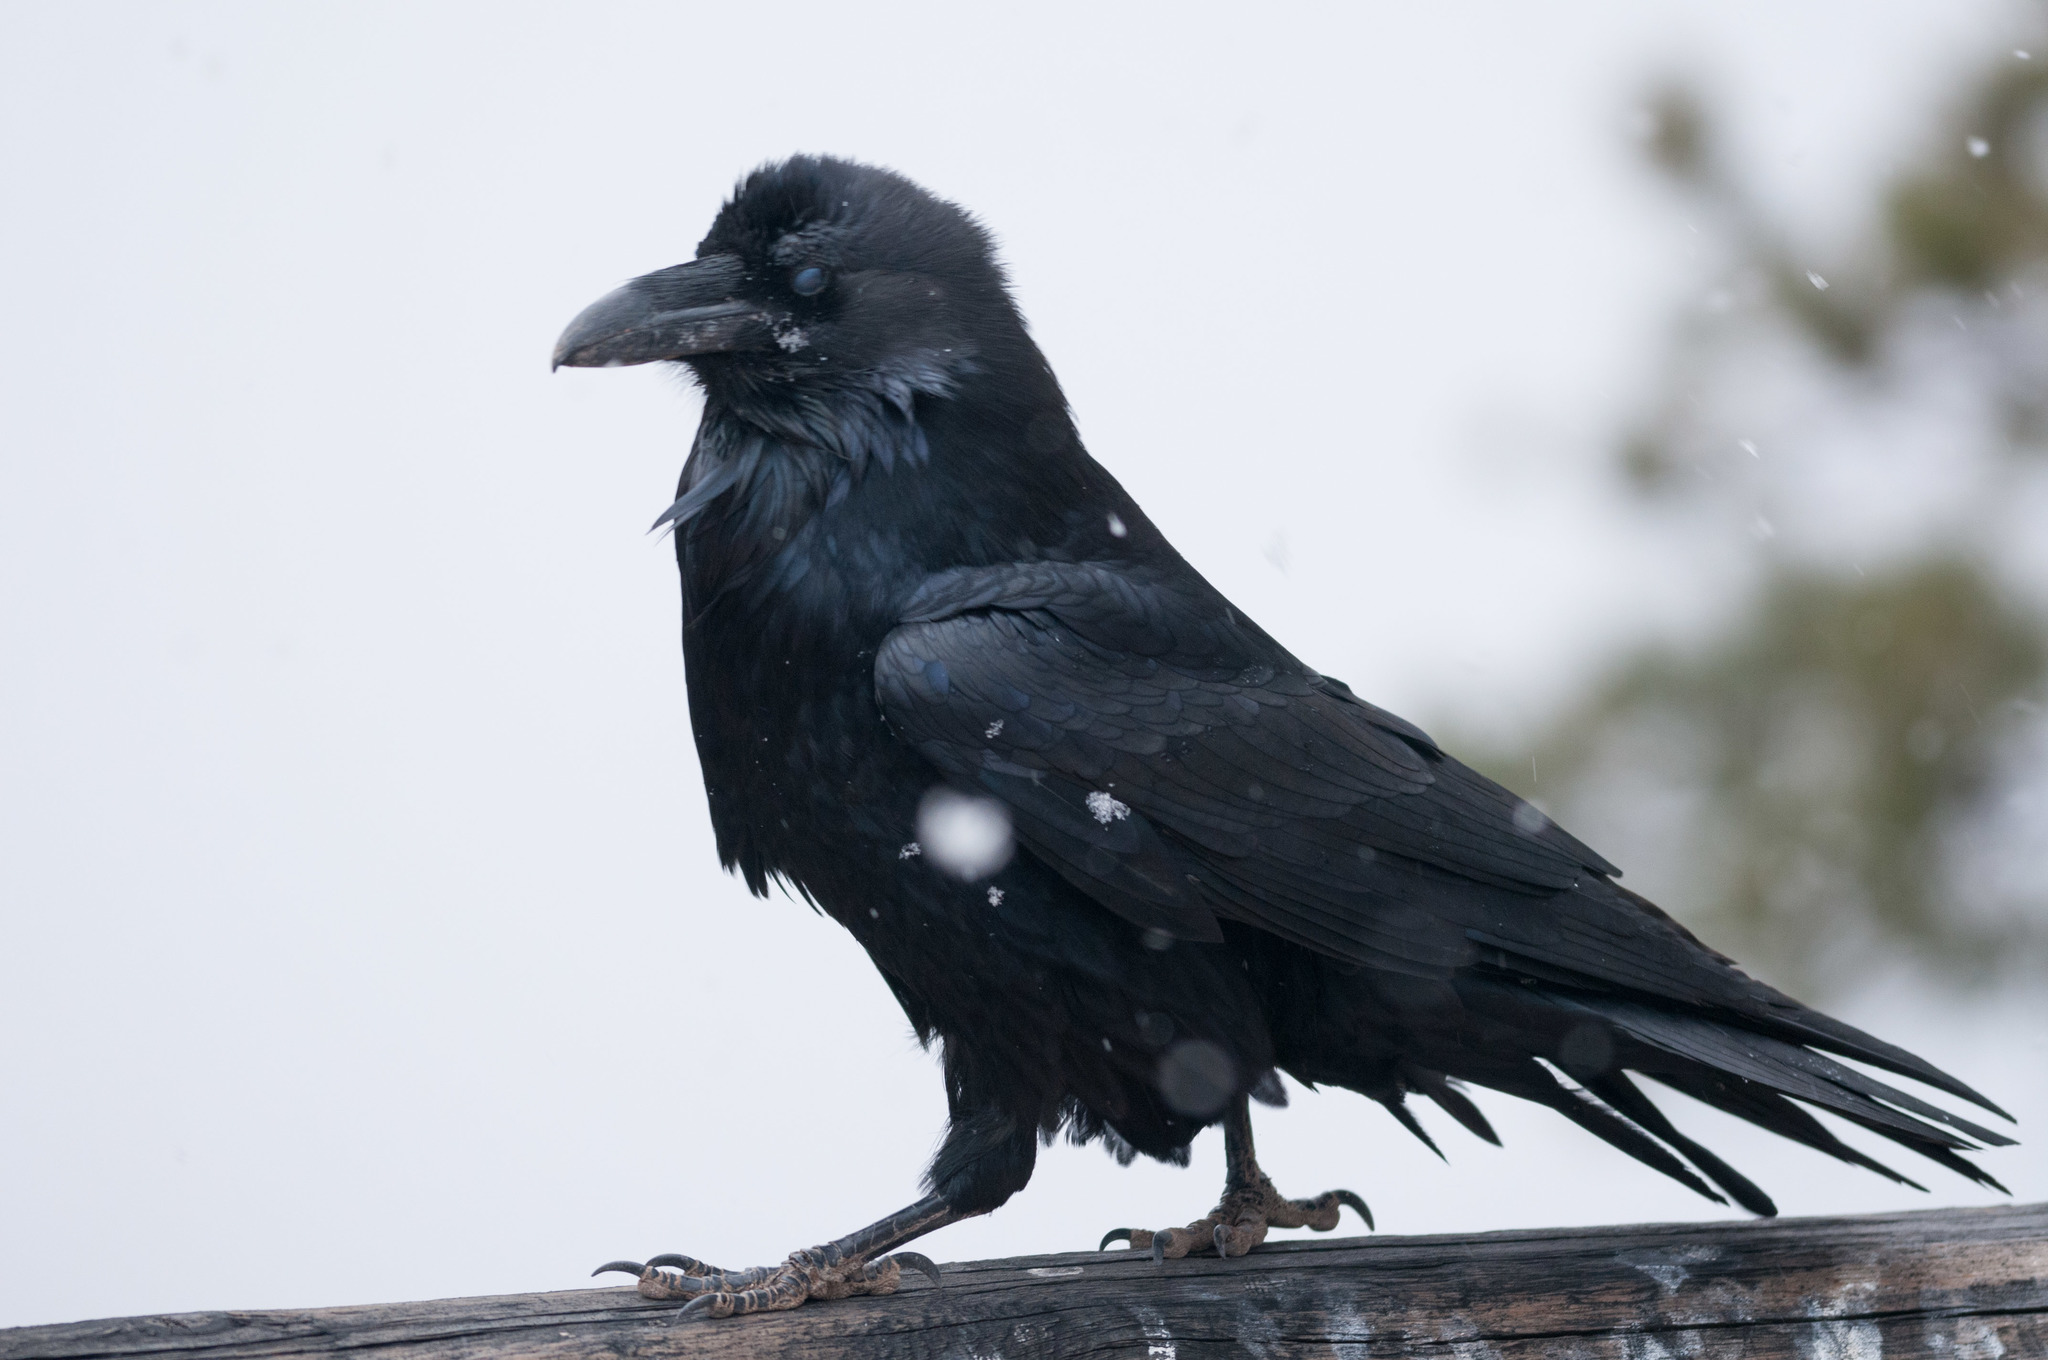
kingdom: Animalia
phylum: Chordata
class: Aves
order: Passeriformes
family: Corvidae
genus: Corvus
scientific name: Corvus corax
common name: Common raven
